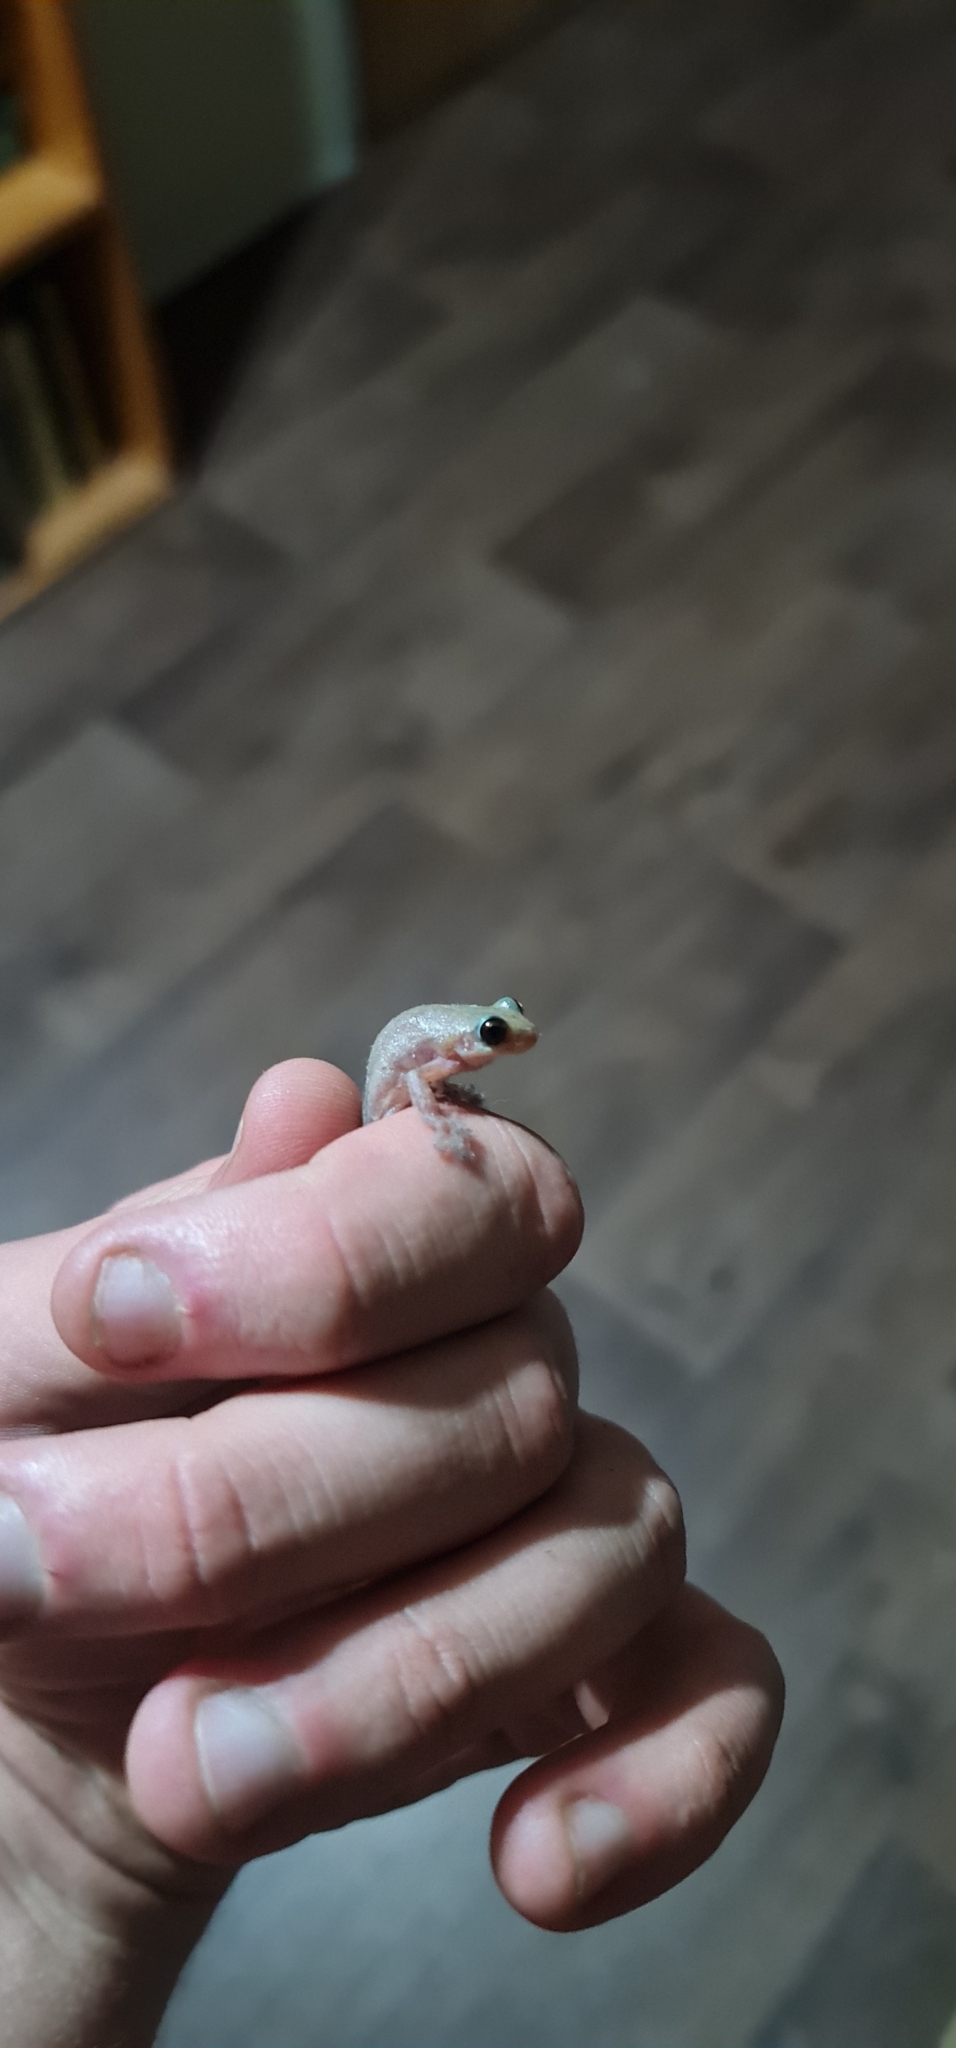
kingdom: Animalia
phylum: Chordata
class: Amphibia
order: Anura
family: Pelodryadidae
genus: Litoria
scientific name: Litoria rubella
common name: Desert tree frog
